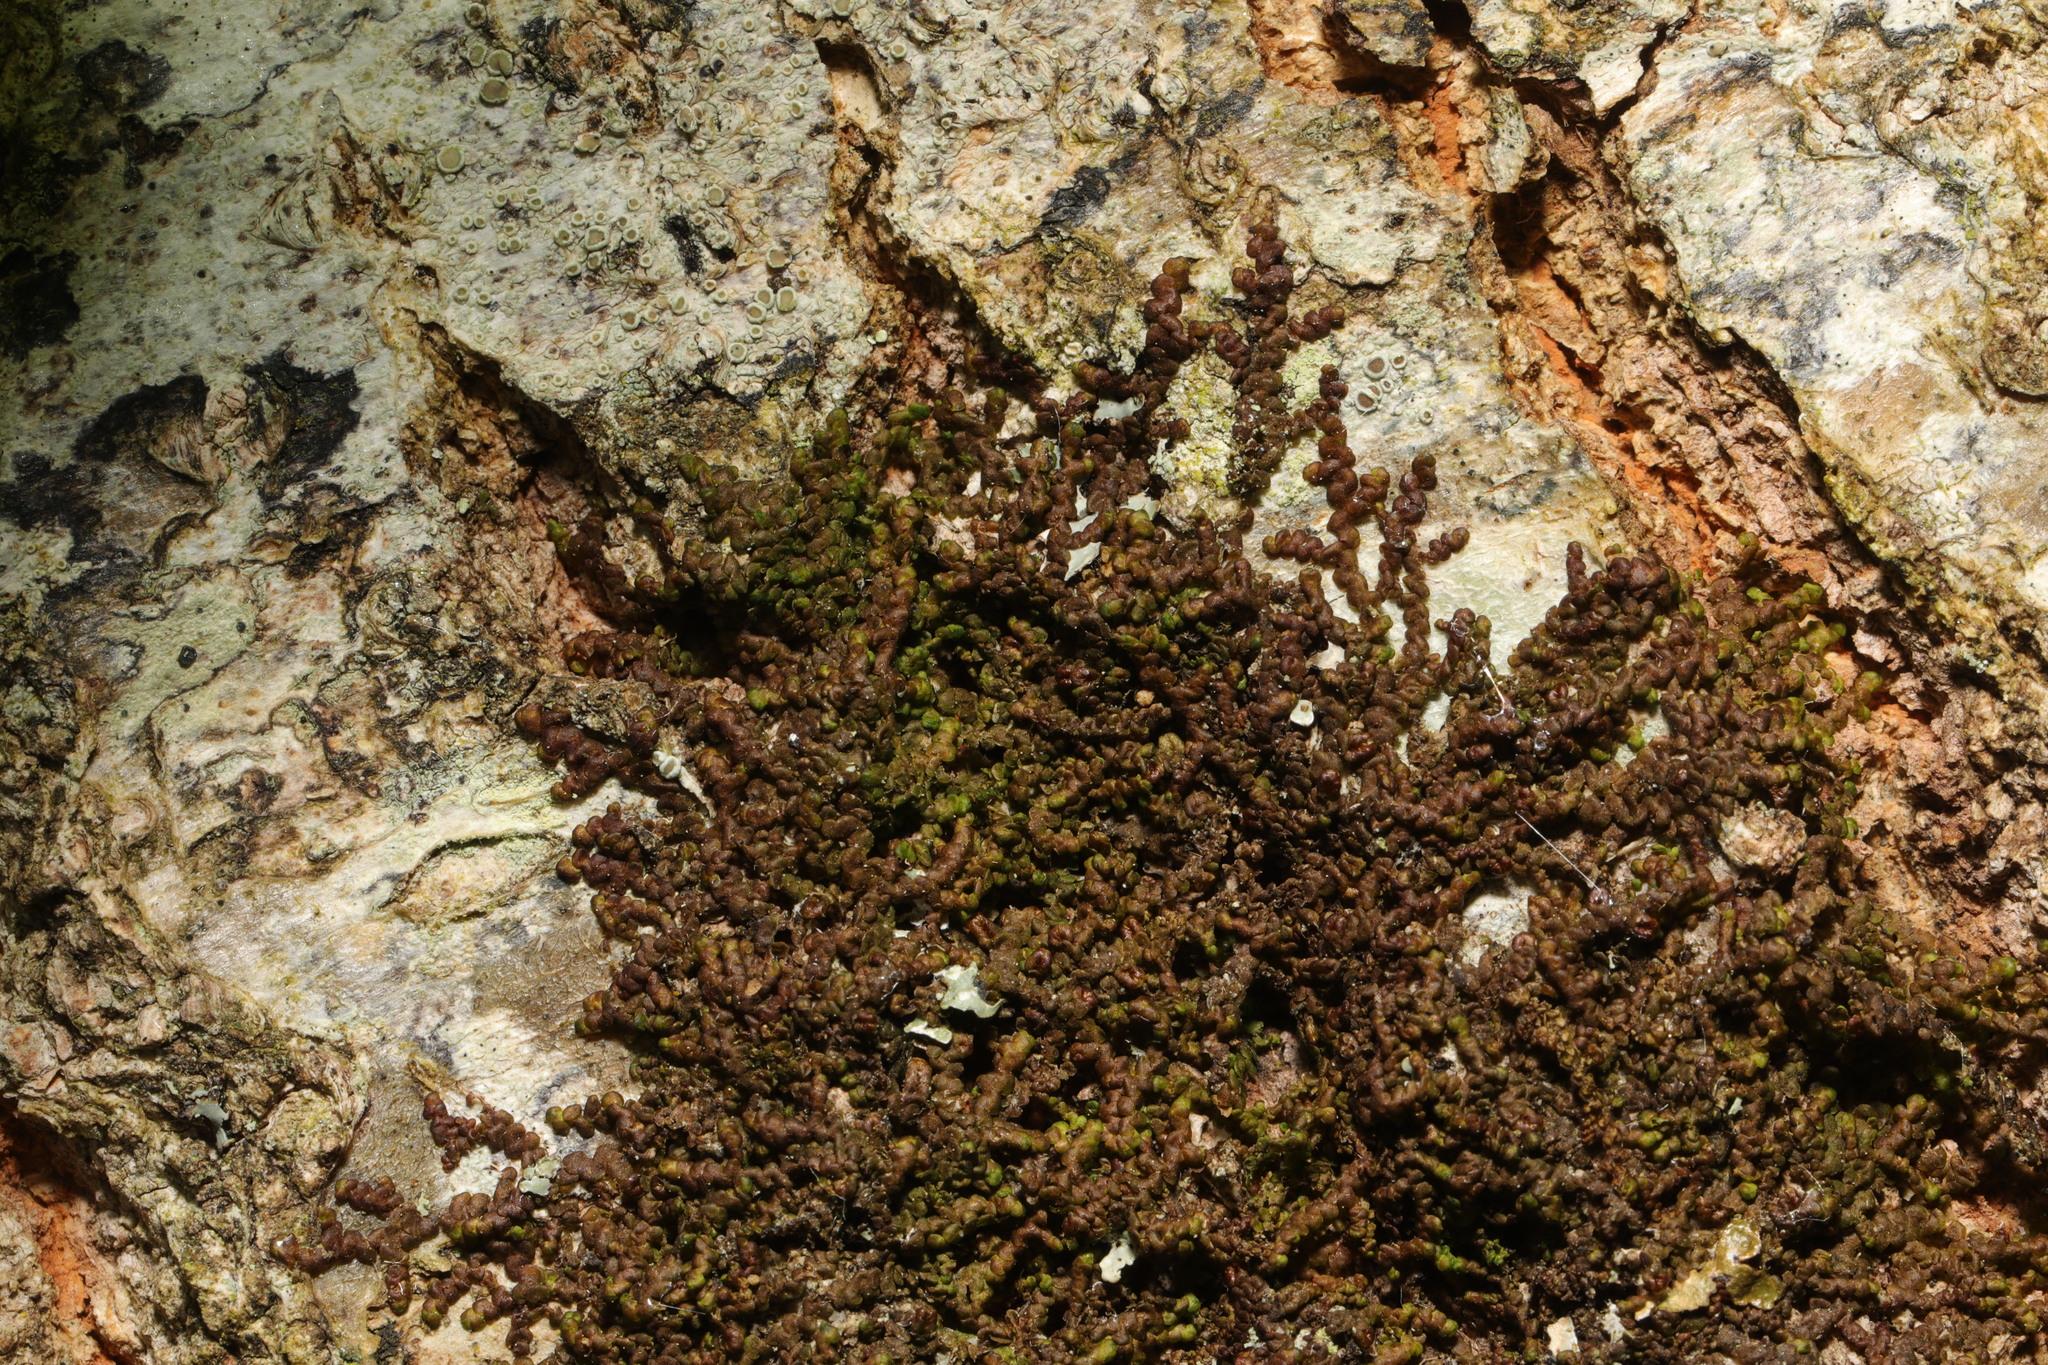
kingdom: Plantae
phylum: Marchantiophyta
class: Jungermanniopsida
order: Porellales
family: Frullaniaceae
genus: Frullania
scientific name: Frullania dilatata
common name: Dilated scalewort
